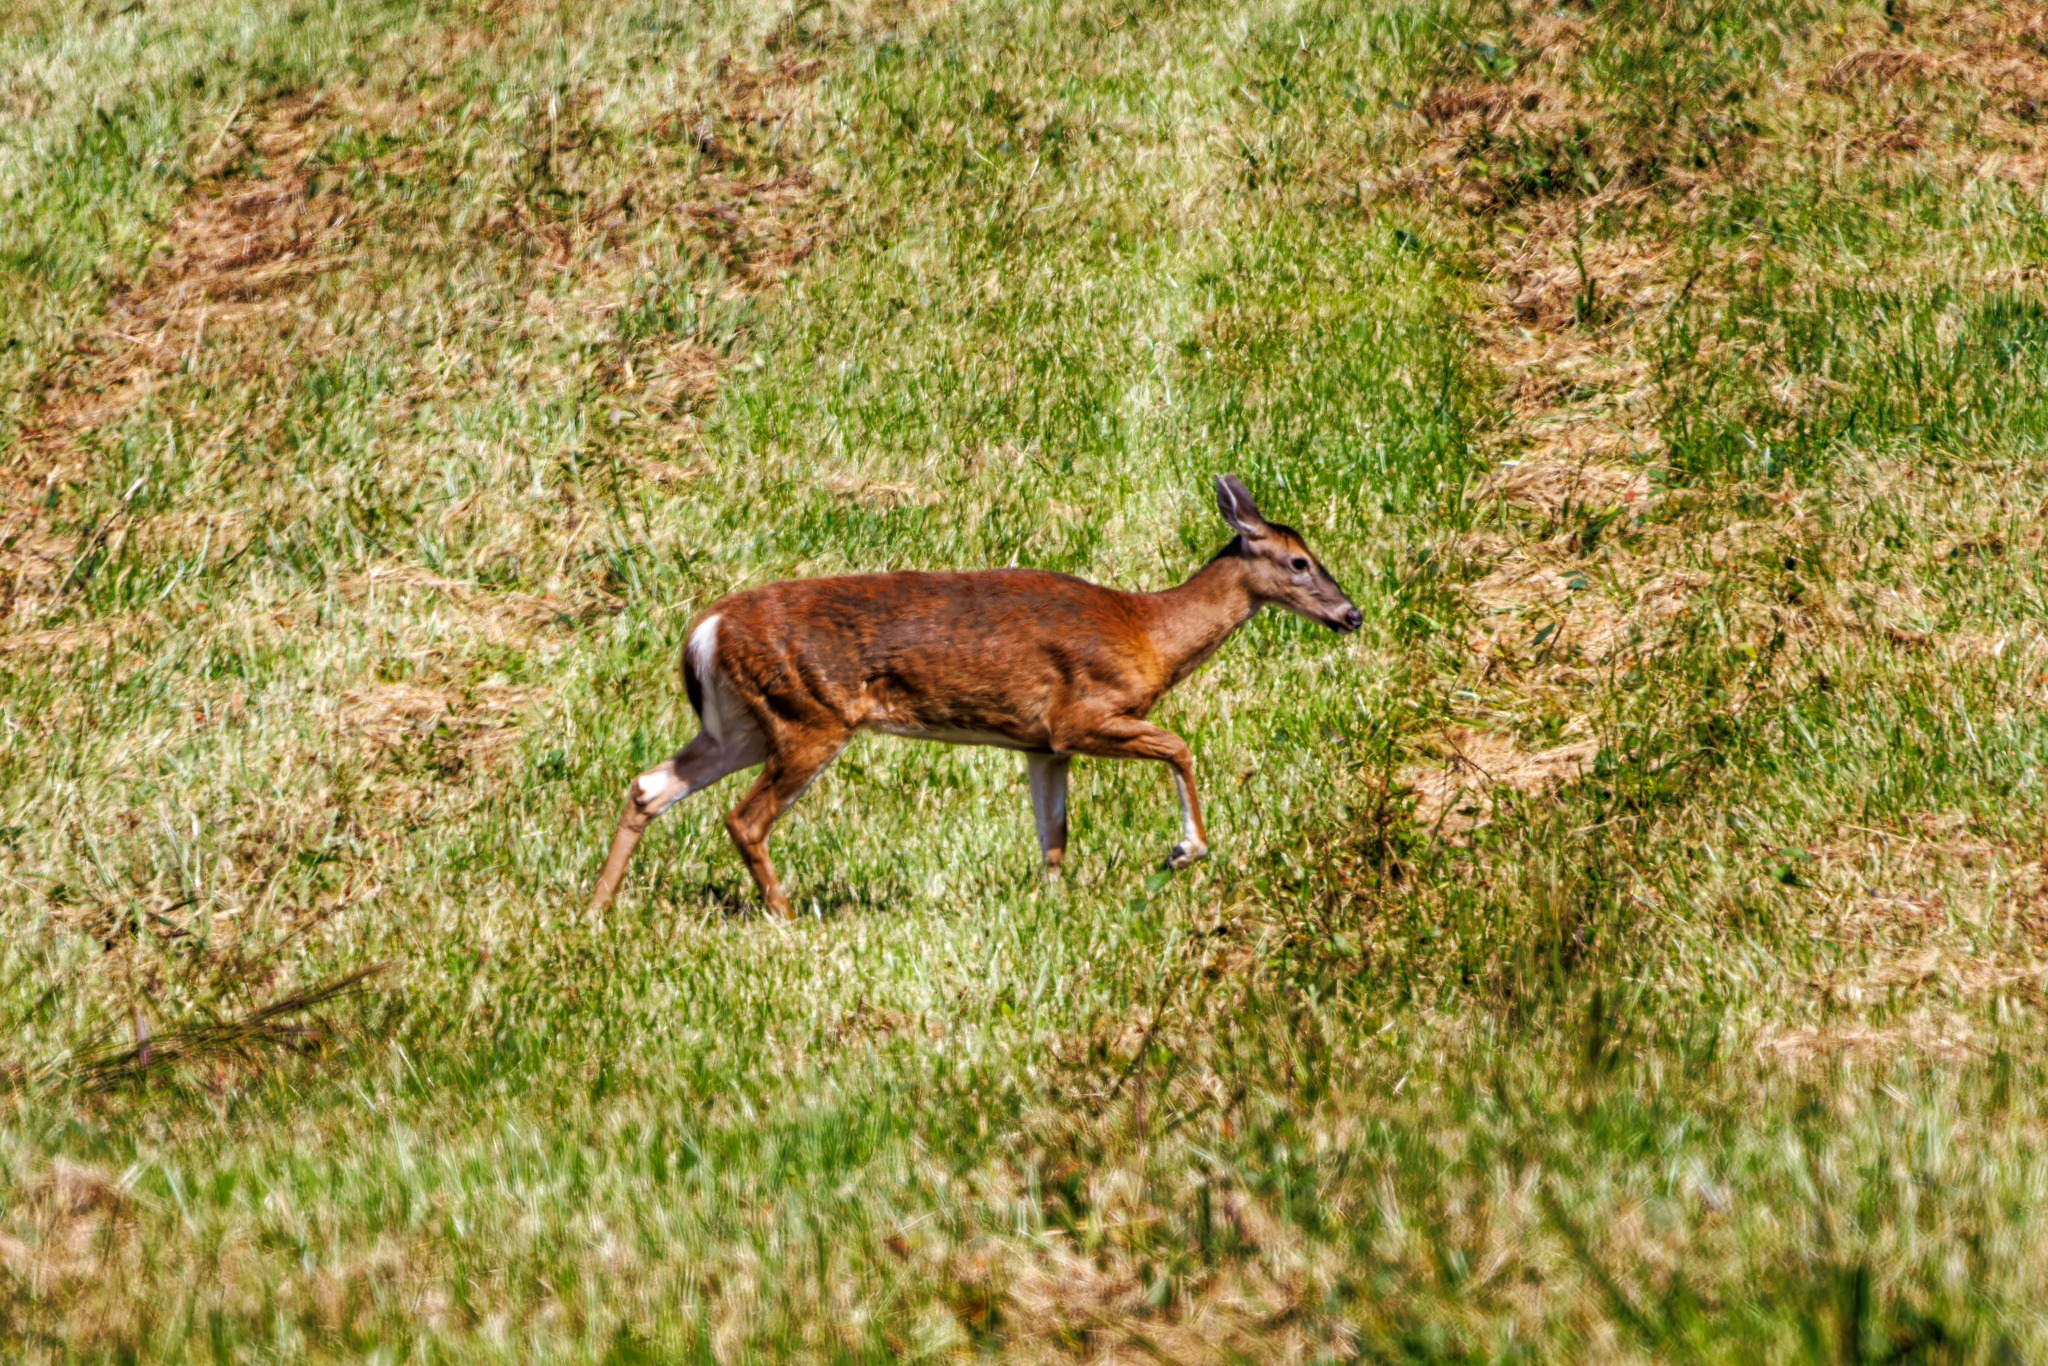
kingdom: Animalia
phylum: Chordata
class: Mammalia
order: Artiodactyla
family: Cervidae
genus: Odocoileus
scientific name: Odocoileus virginianus
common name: White-tailed deer
